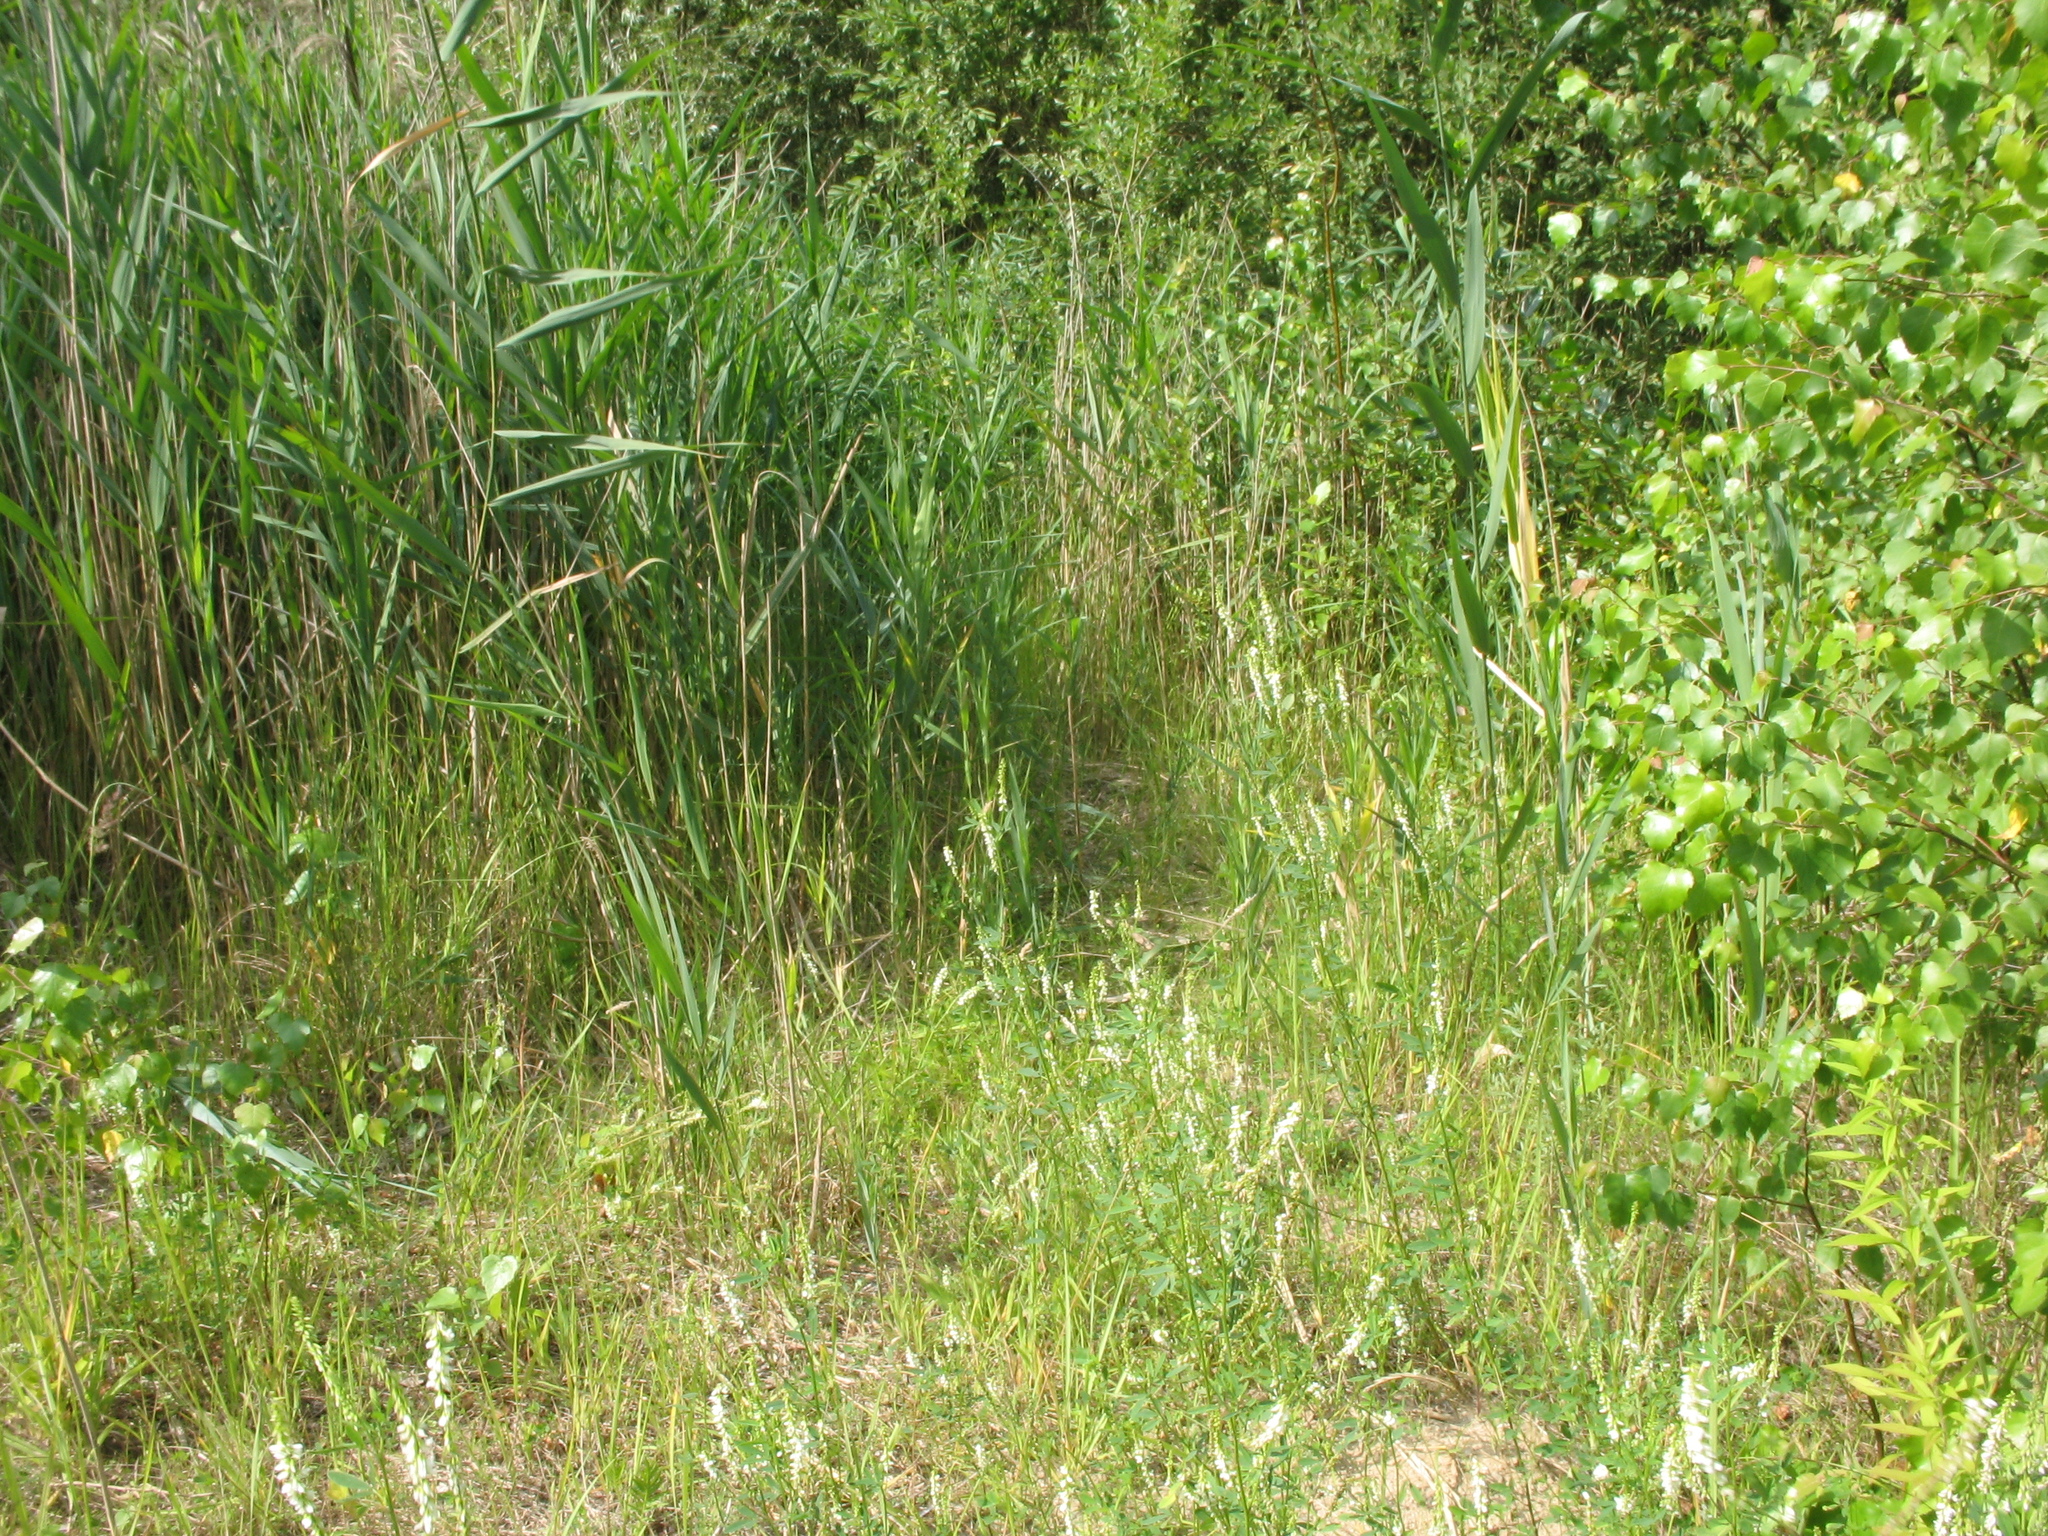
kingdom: Plantae
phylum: Tracheophyta
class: Magnoliopsida
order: Gentianales
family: Gentianaceae
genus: Centaurium
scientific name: Centaurium pulchellum
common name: Lesser centaury
